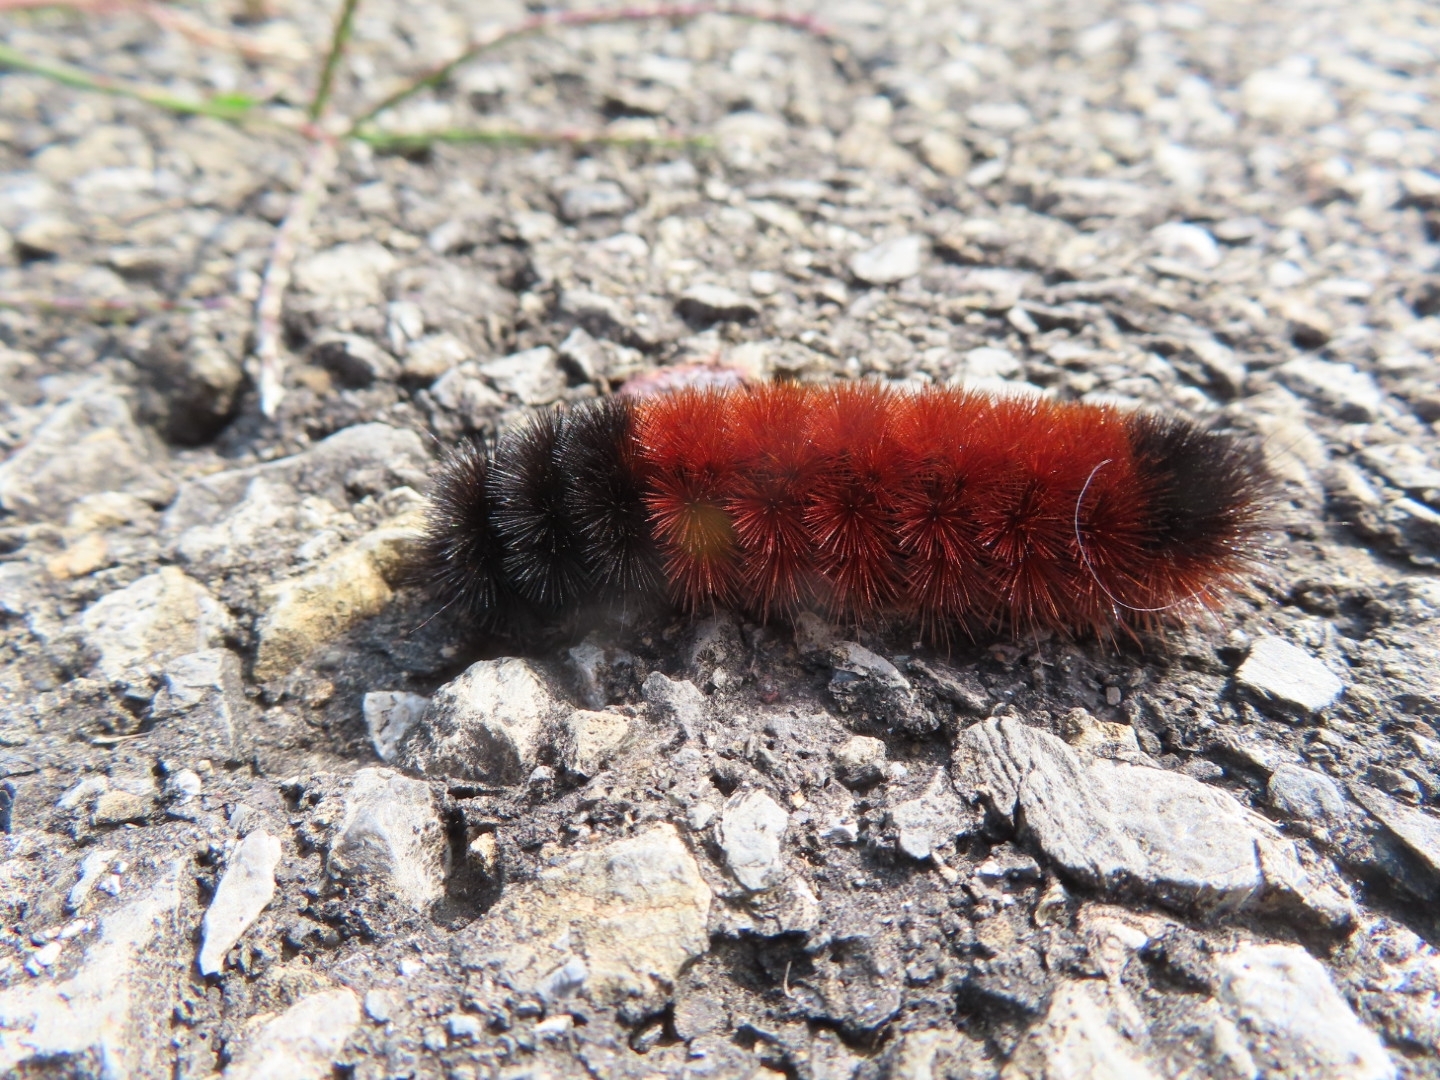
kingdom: Animalia
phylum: Arthropoda
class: Insecta
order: Lepidoptera
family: Erebidae
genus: Pyrrharctia
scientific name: Pyrrharctia isabella
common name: Isabella tiger moth
